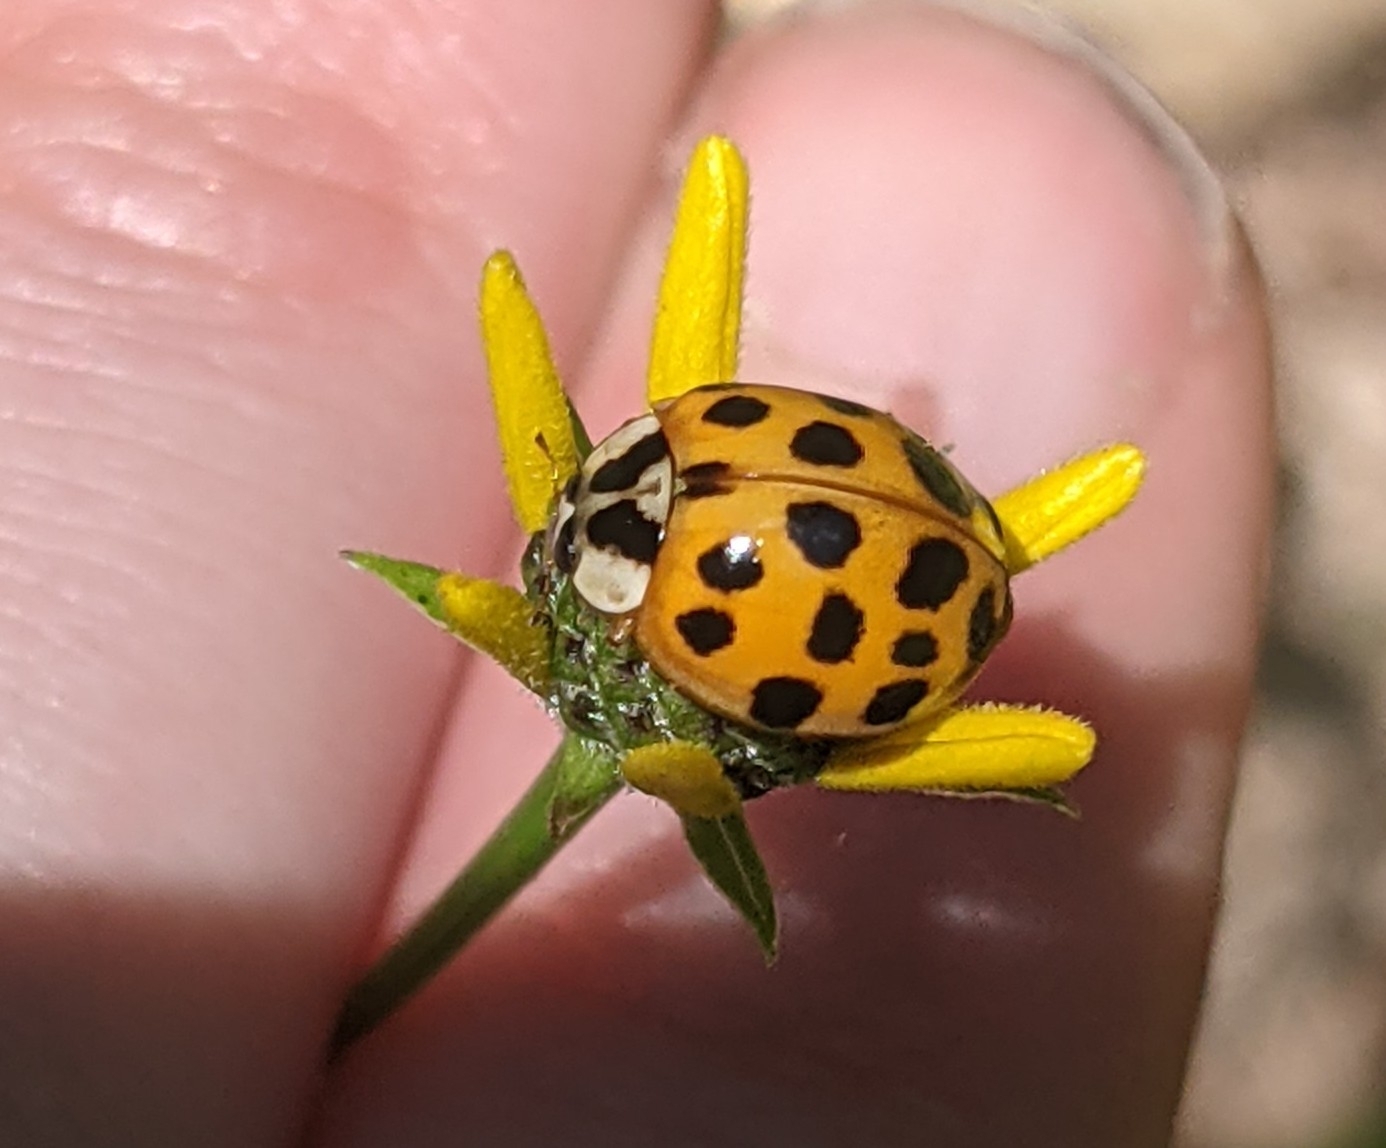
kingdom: Animalia
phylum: Arthropoda
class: Insecta
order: Coleoptera
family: Coccinellidae
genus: Harmonia
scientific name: Harmonia axyridis
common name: Harlequin ladybird
